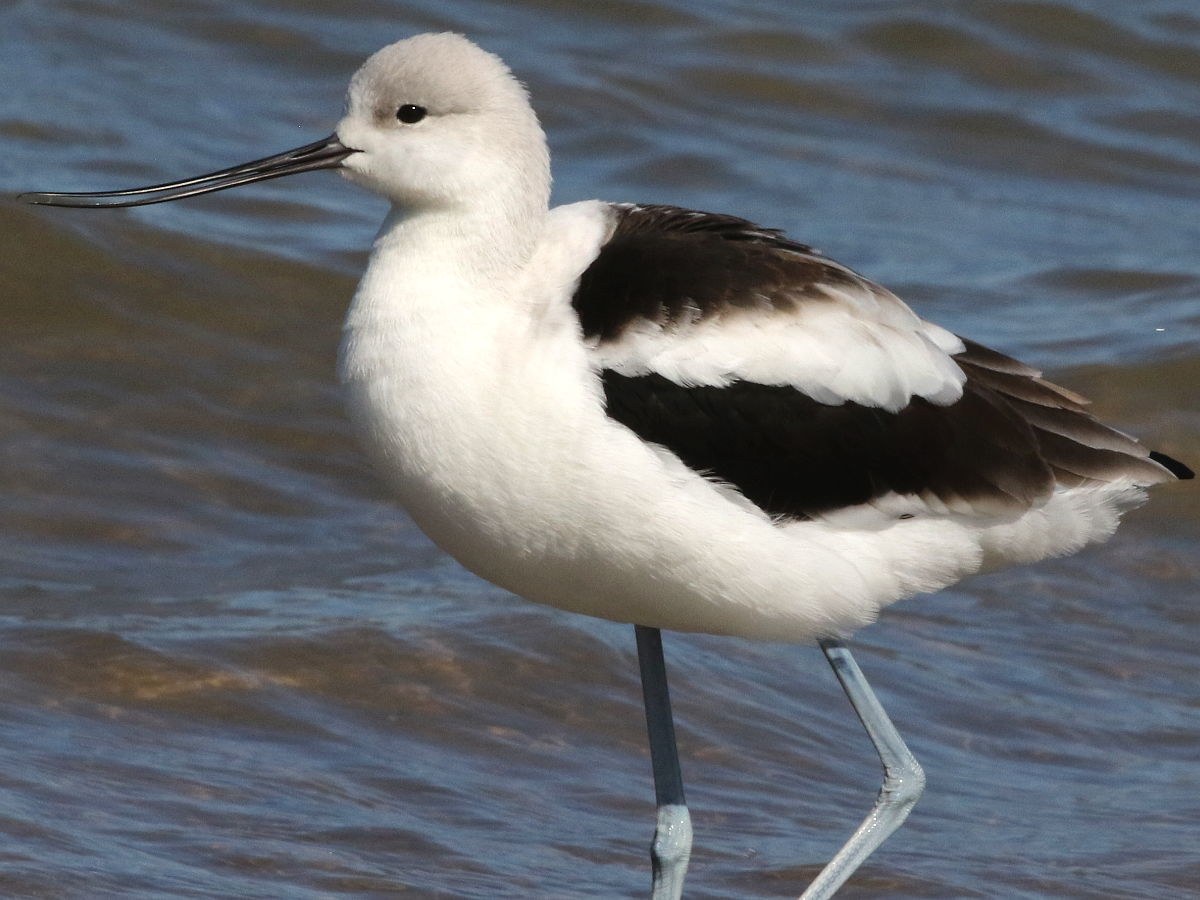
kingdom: Animalia
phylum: Chordata
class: Aves
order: Charadriiformes
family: Recurvirostridae
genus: Recurvirostra
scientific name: Recurvirostra americana
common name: American avocet
